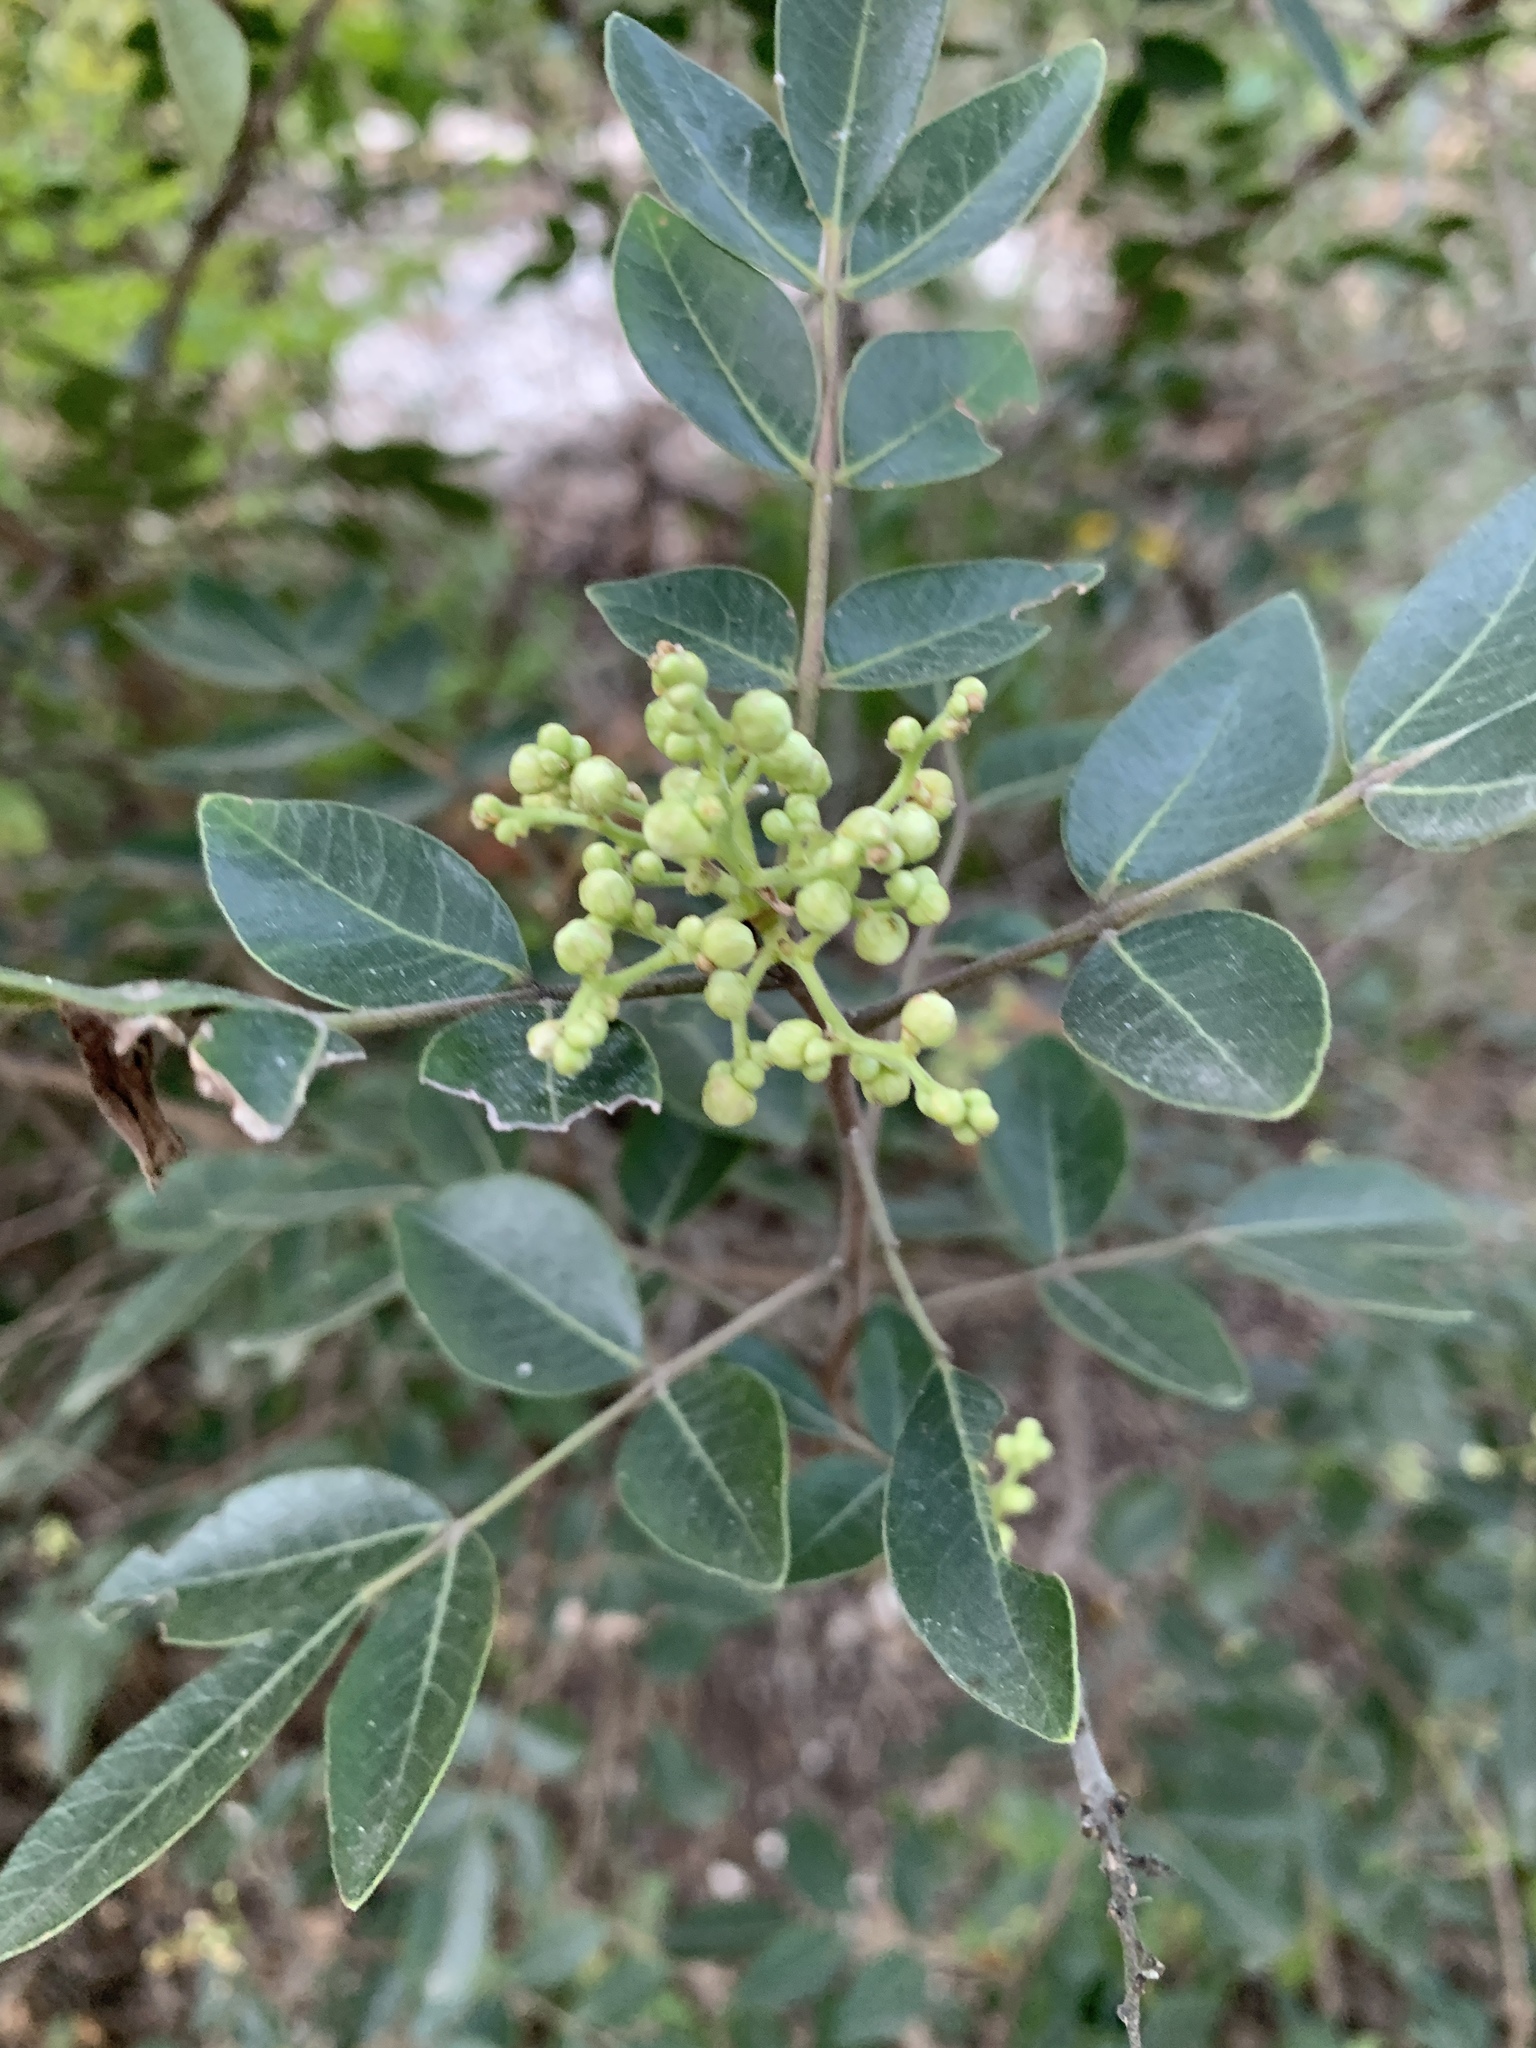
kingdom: Plantae
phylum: Tracheophyta
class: Magnoliopsida
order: Sapindales
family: Anacardiaceae
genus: Rhus
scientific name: Rhus virens
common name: Evergreen sumac
